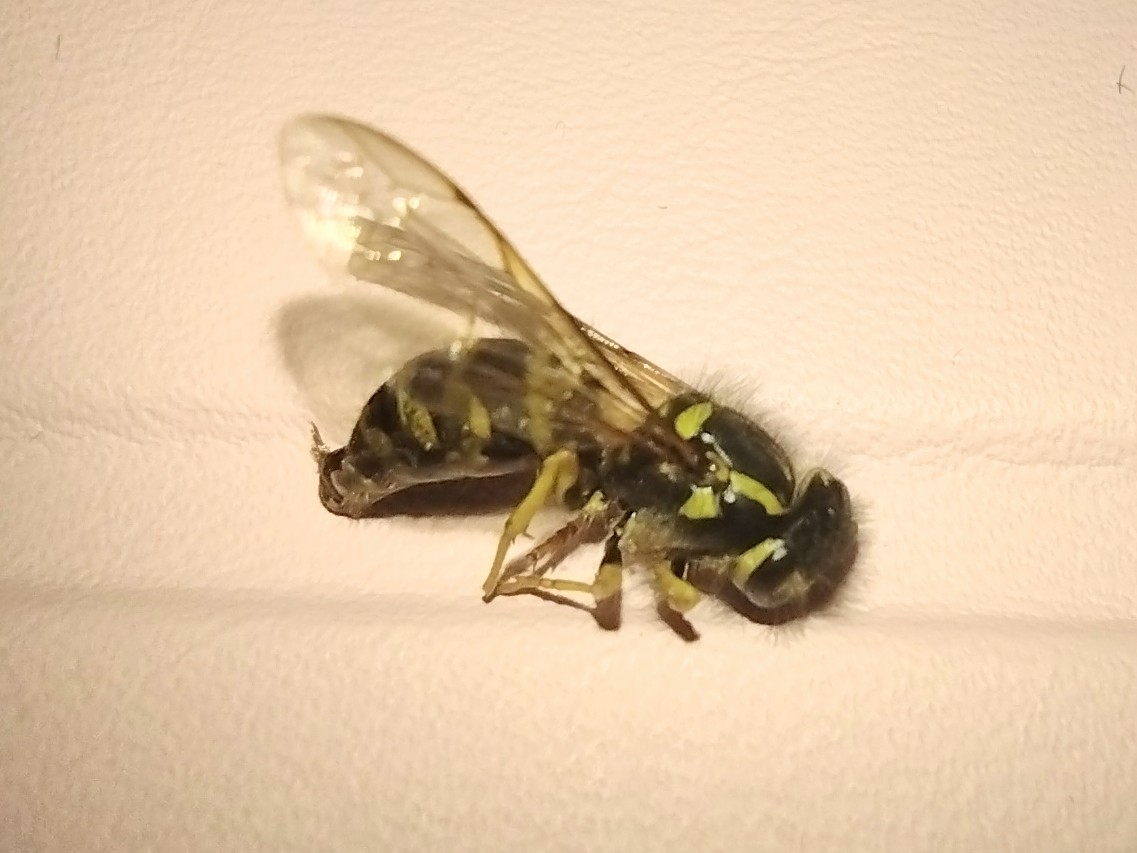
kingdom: Animalia
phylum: Arthropoda
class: Insecta
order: Hymenoptera
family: Vespidae
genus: Vespula
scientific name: Vespula maculifrons
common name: Eastern yellowjacket
